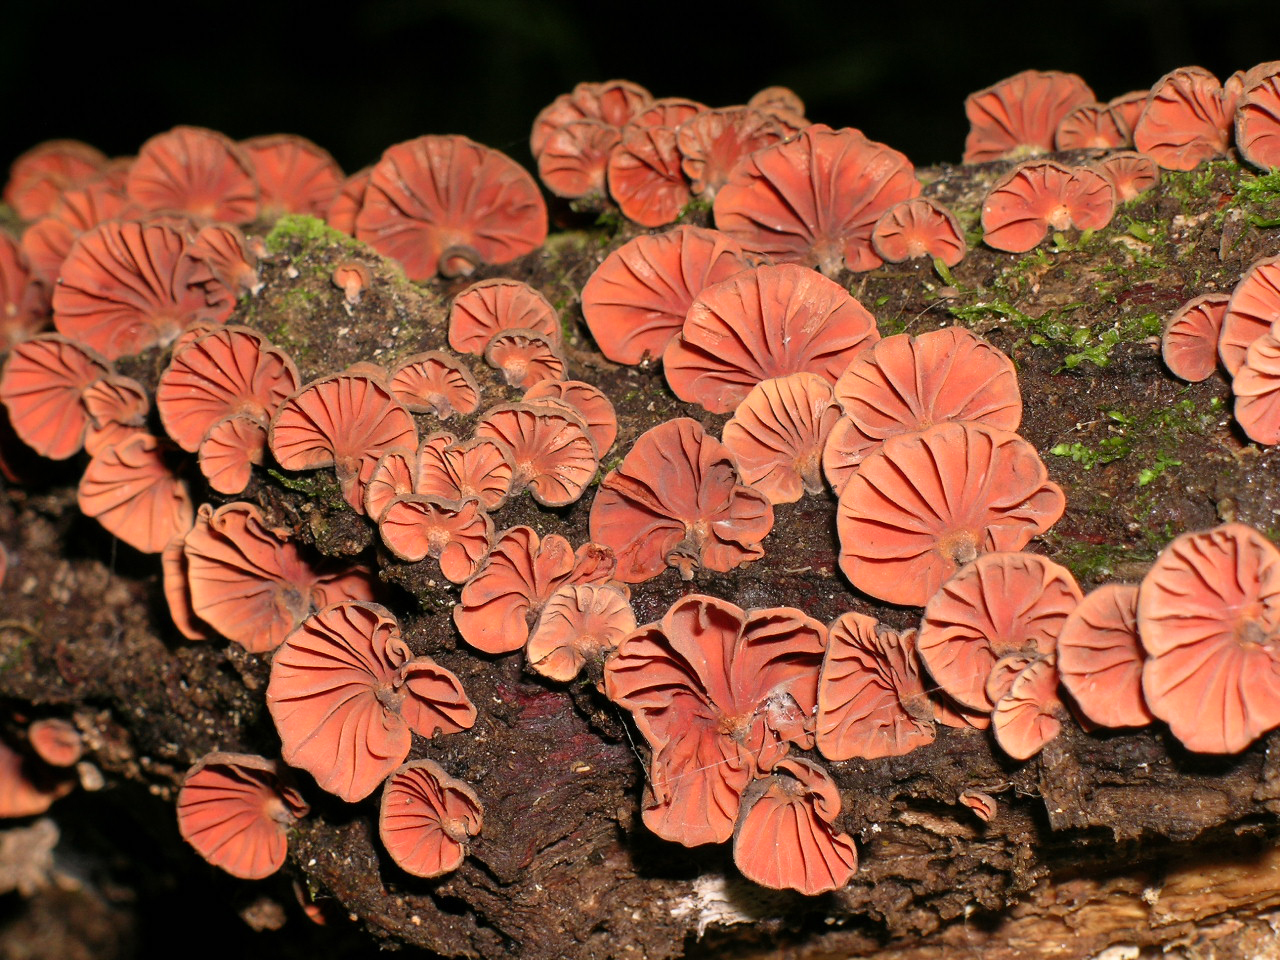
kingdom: Fungi
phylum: Basidiomycota
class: Agaricomycetes
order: Agaricales
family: Omphalotaceae
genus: Anthracophyllum
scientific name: Anthracophyllum archeri
